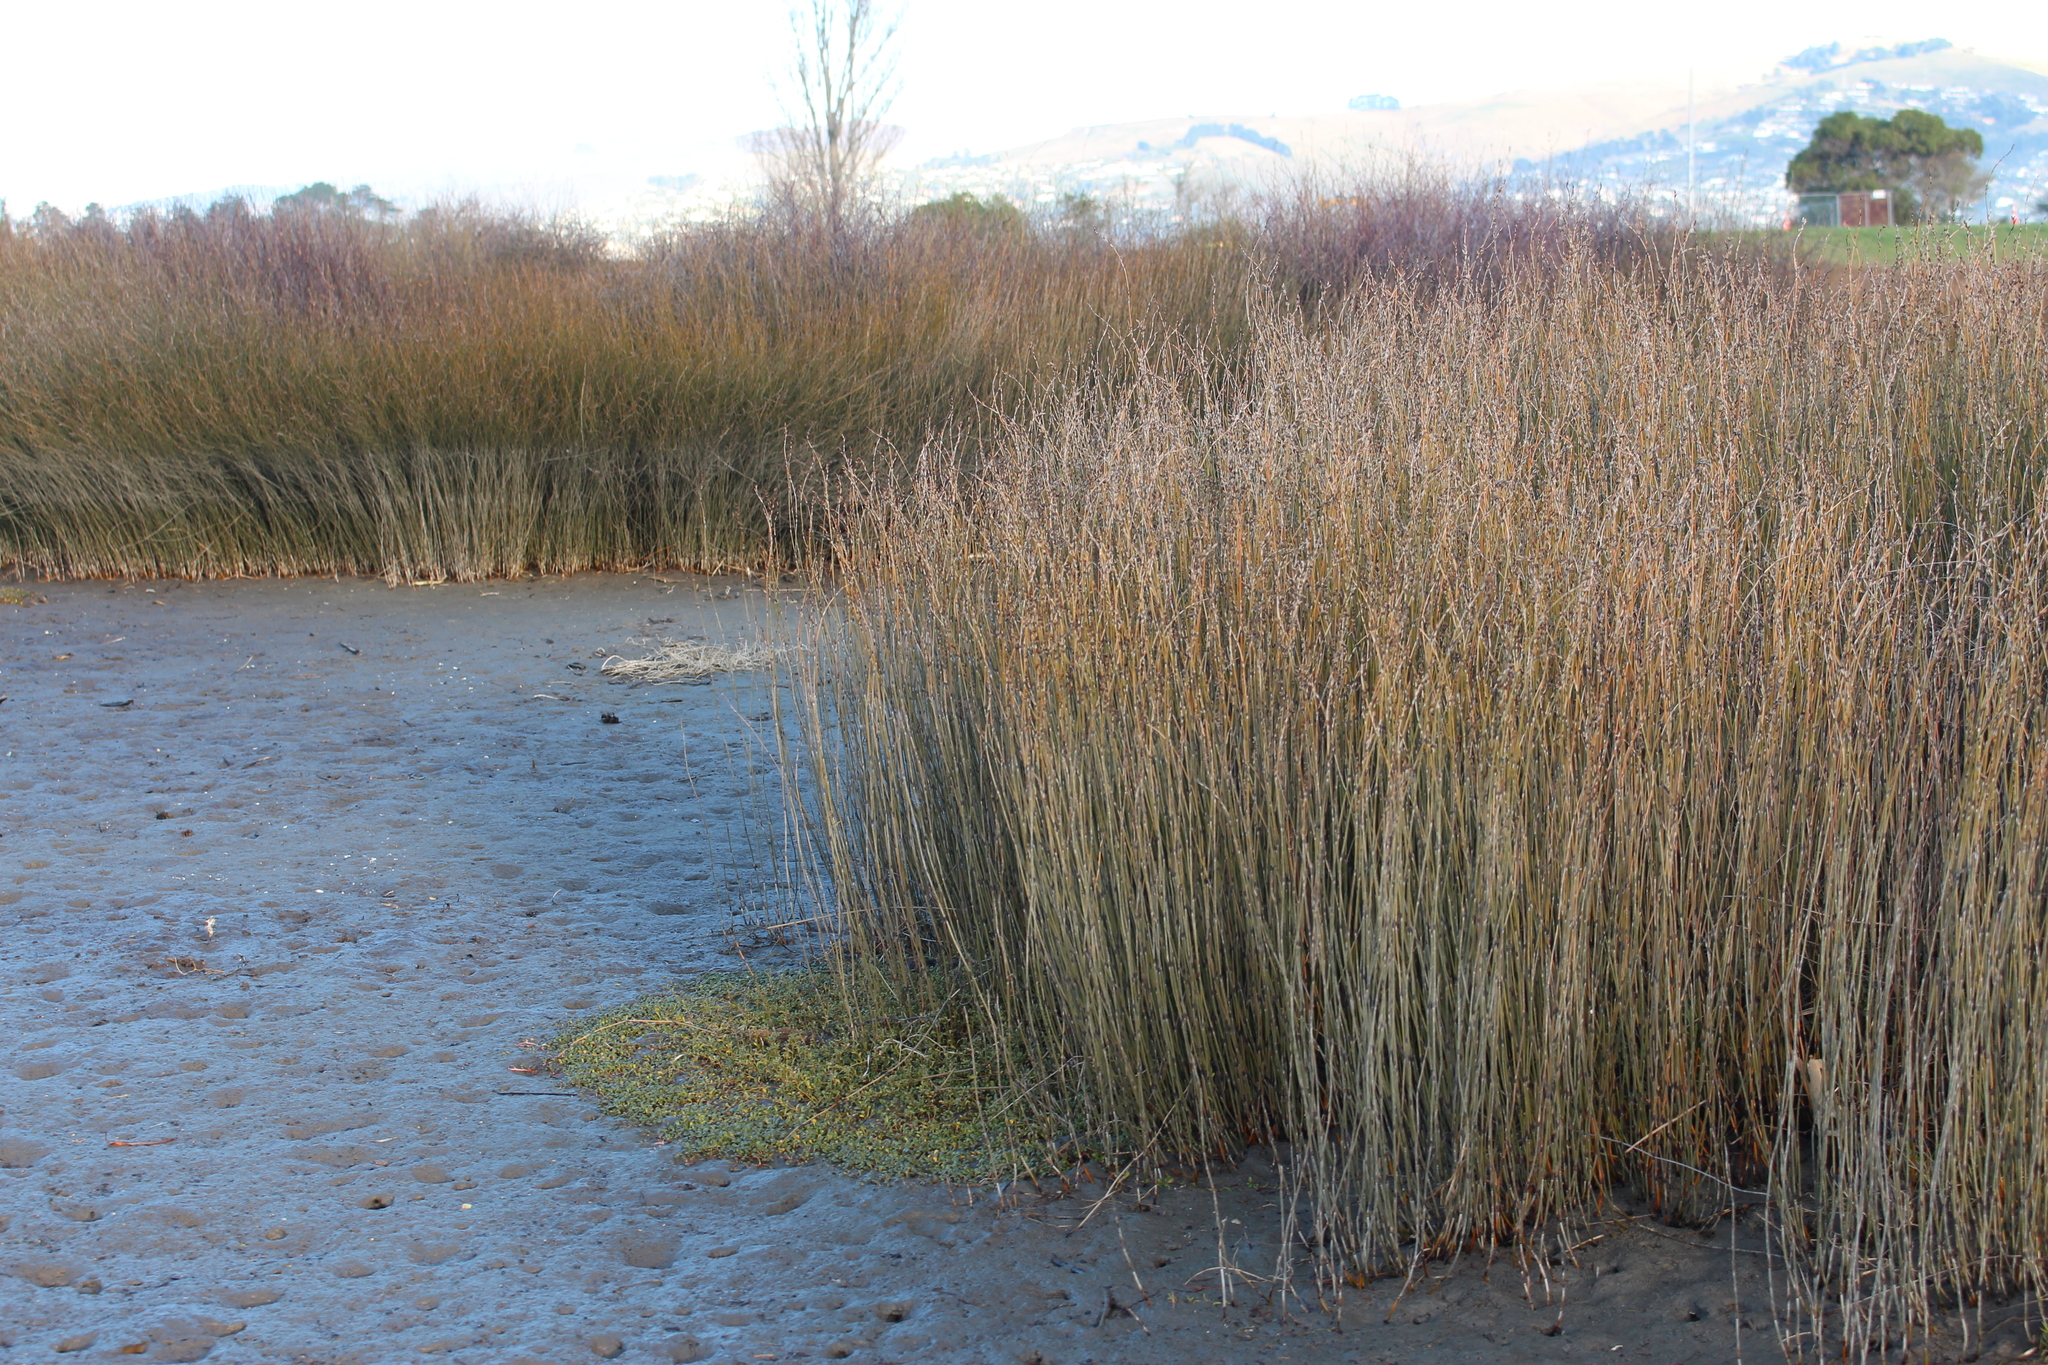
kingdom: Plantae
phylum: Tracheophyta
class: Liliopsida
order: Poales
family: Restionaceae
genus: Apodasmia
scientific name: Apodasmia similis
